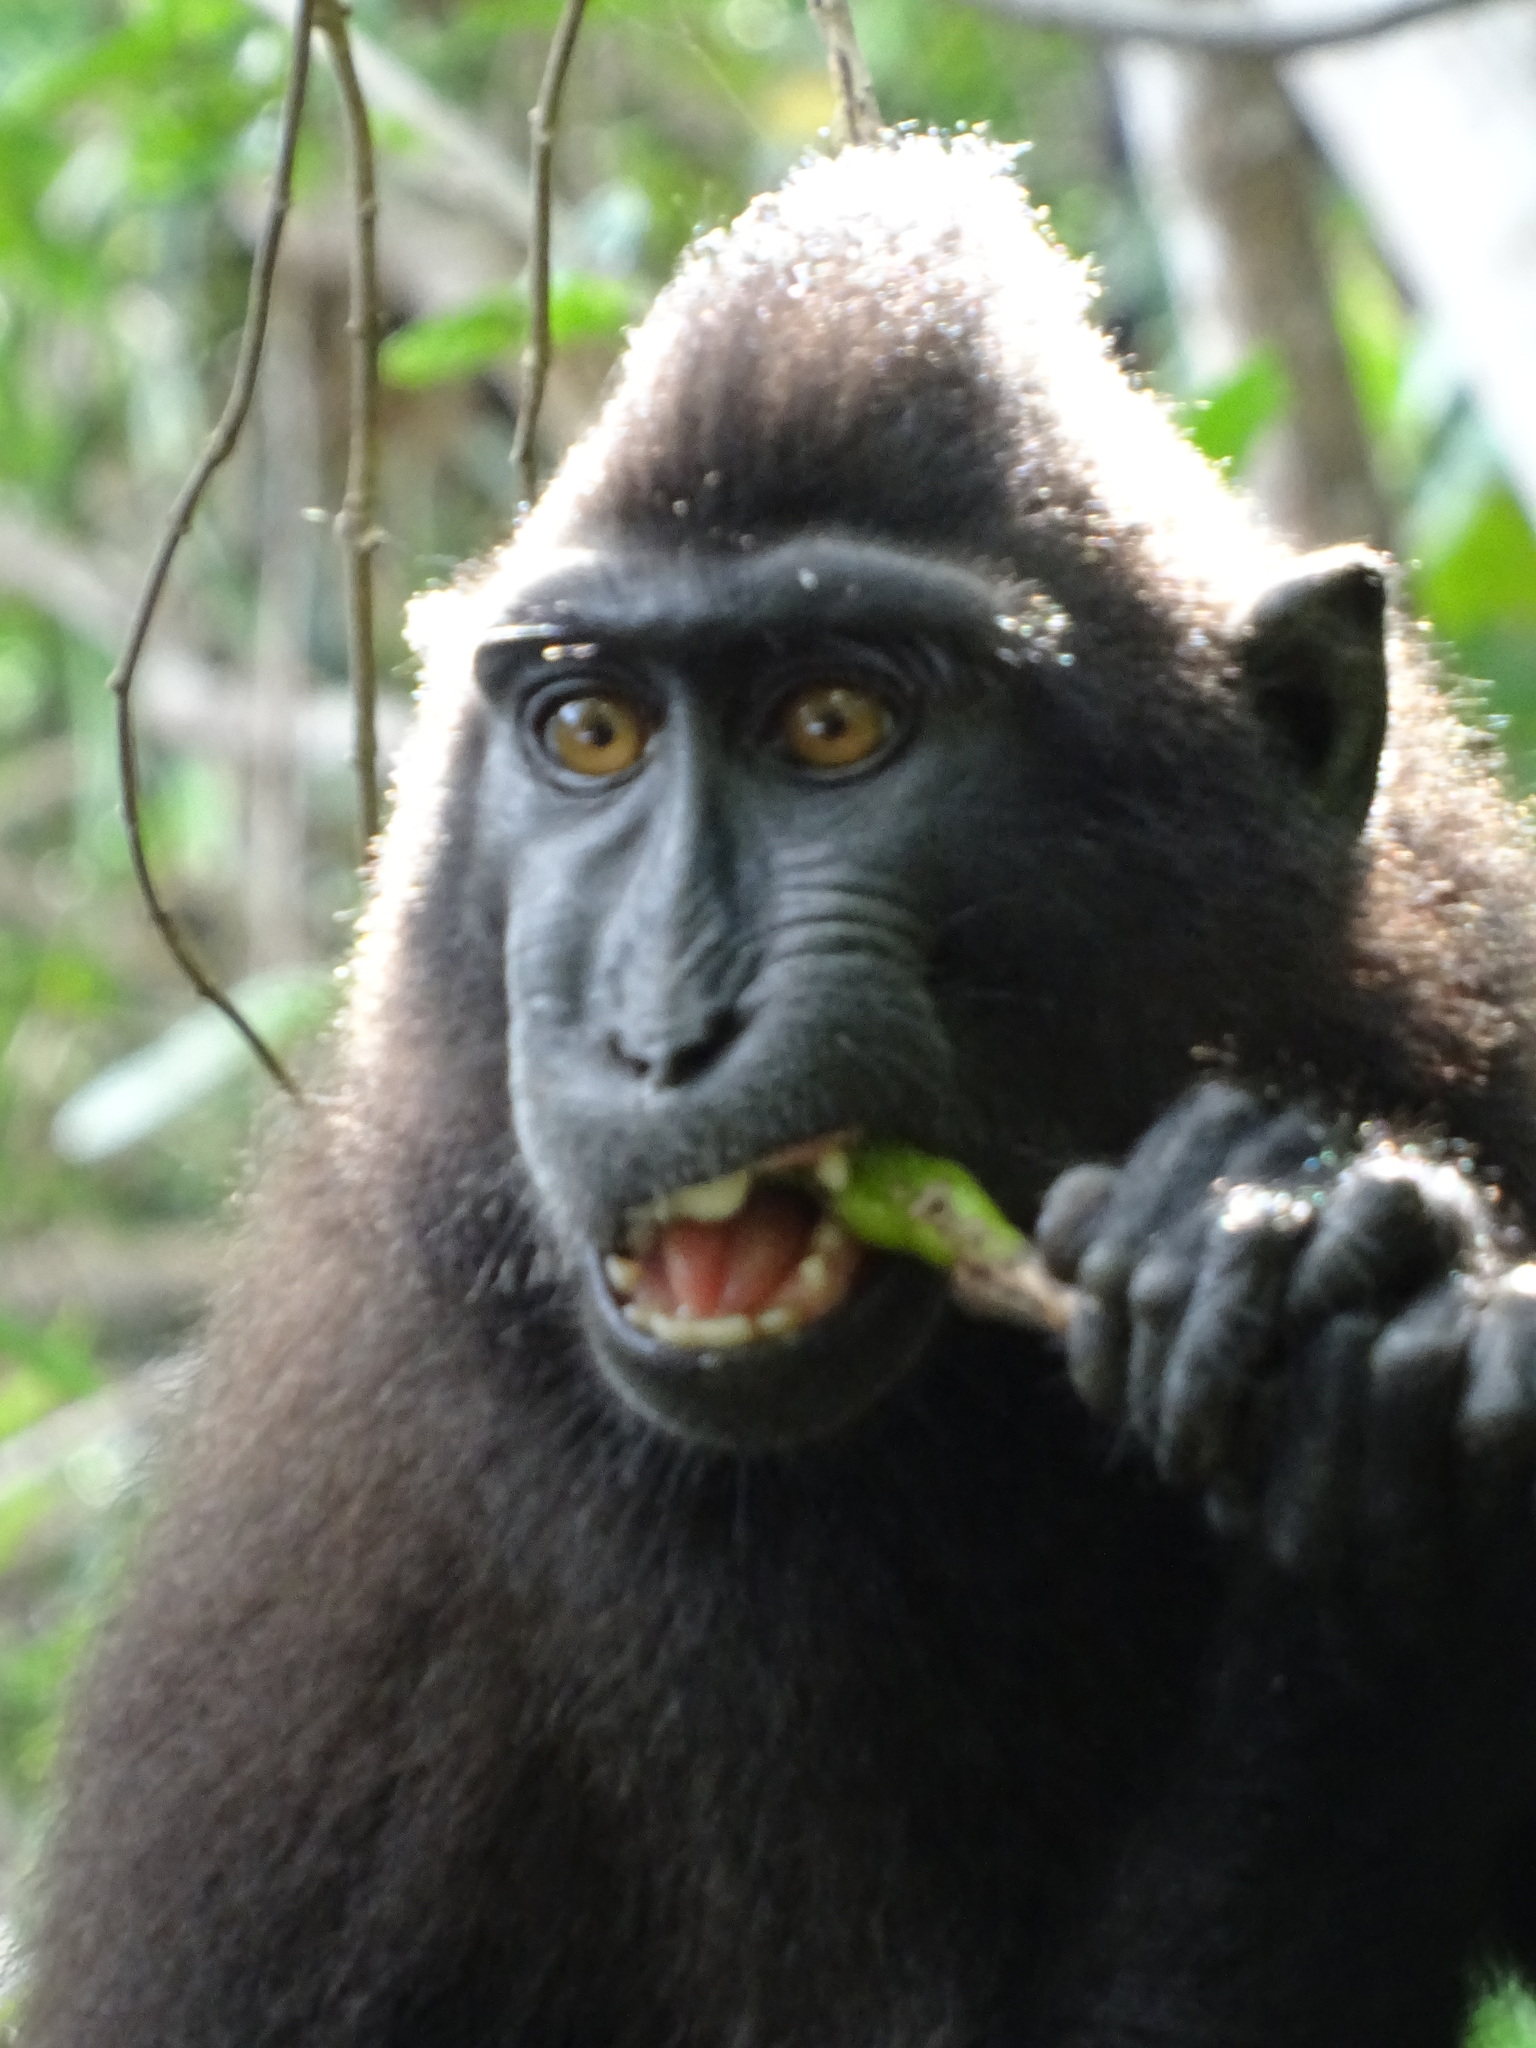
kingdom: Animalia
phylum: Chordata
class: Mammalia
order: Primates
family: Cercopithecidae
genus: Macaca
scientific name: Macaca nigra
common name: Celebes crested macaque
